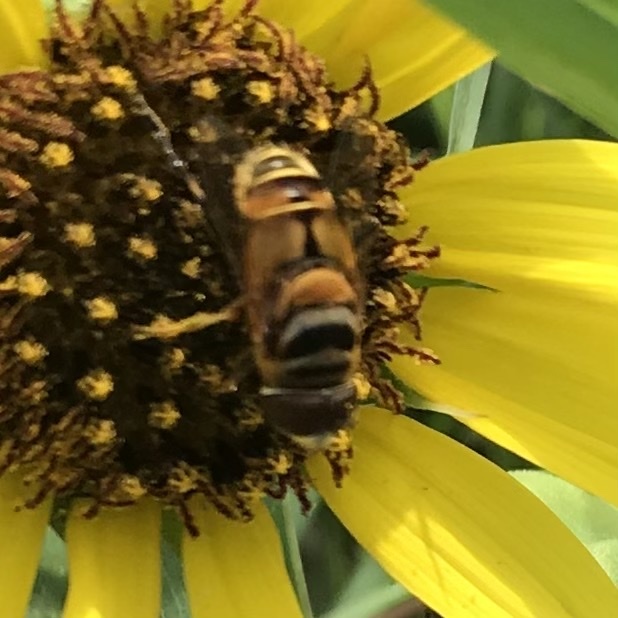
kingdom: Animalia
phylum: Arthropoda
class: Insecta
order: Diptera
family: Syrphidae
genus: Palpada
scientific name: Palpada vinetorum
